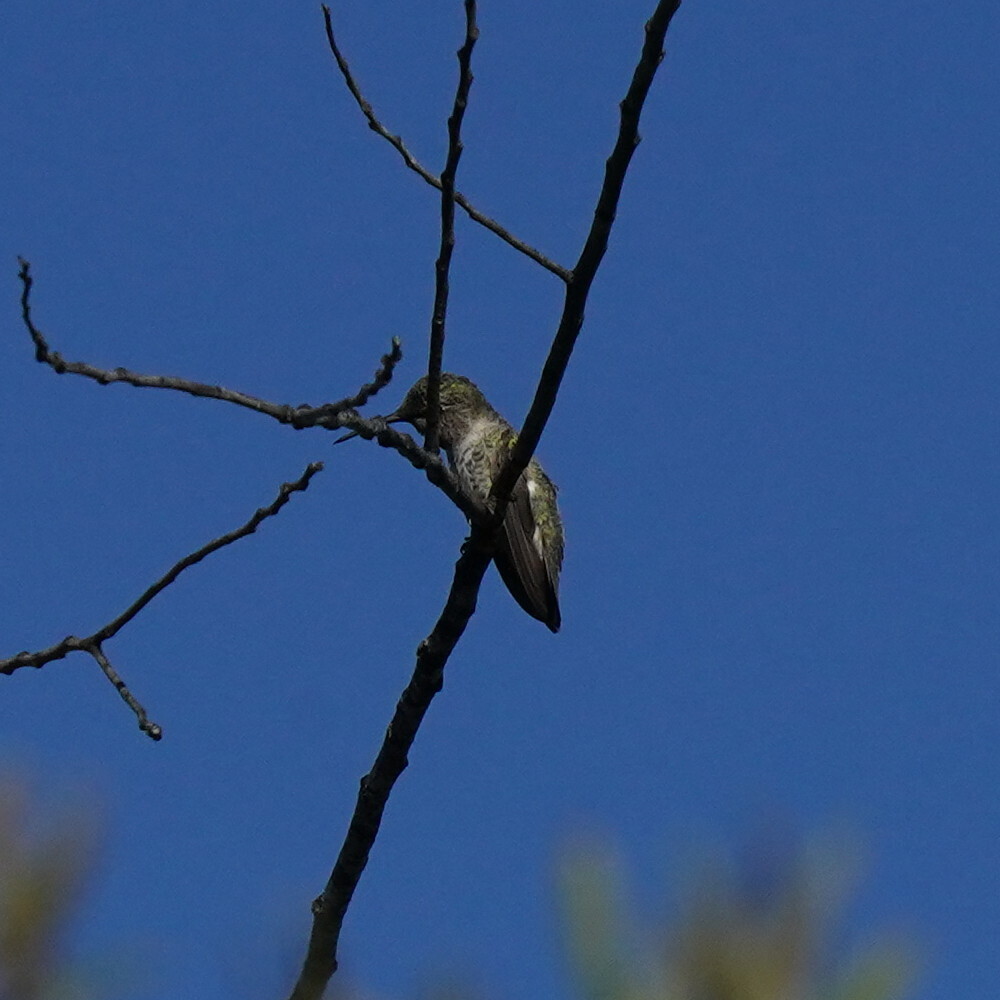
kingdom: Animalia
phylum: Chordata
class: Aves
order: Apodiformes
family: Trochilidae
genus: Calypte
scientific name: Calypte anna
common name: Anna's hummingbird
